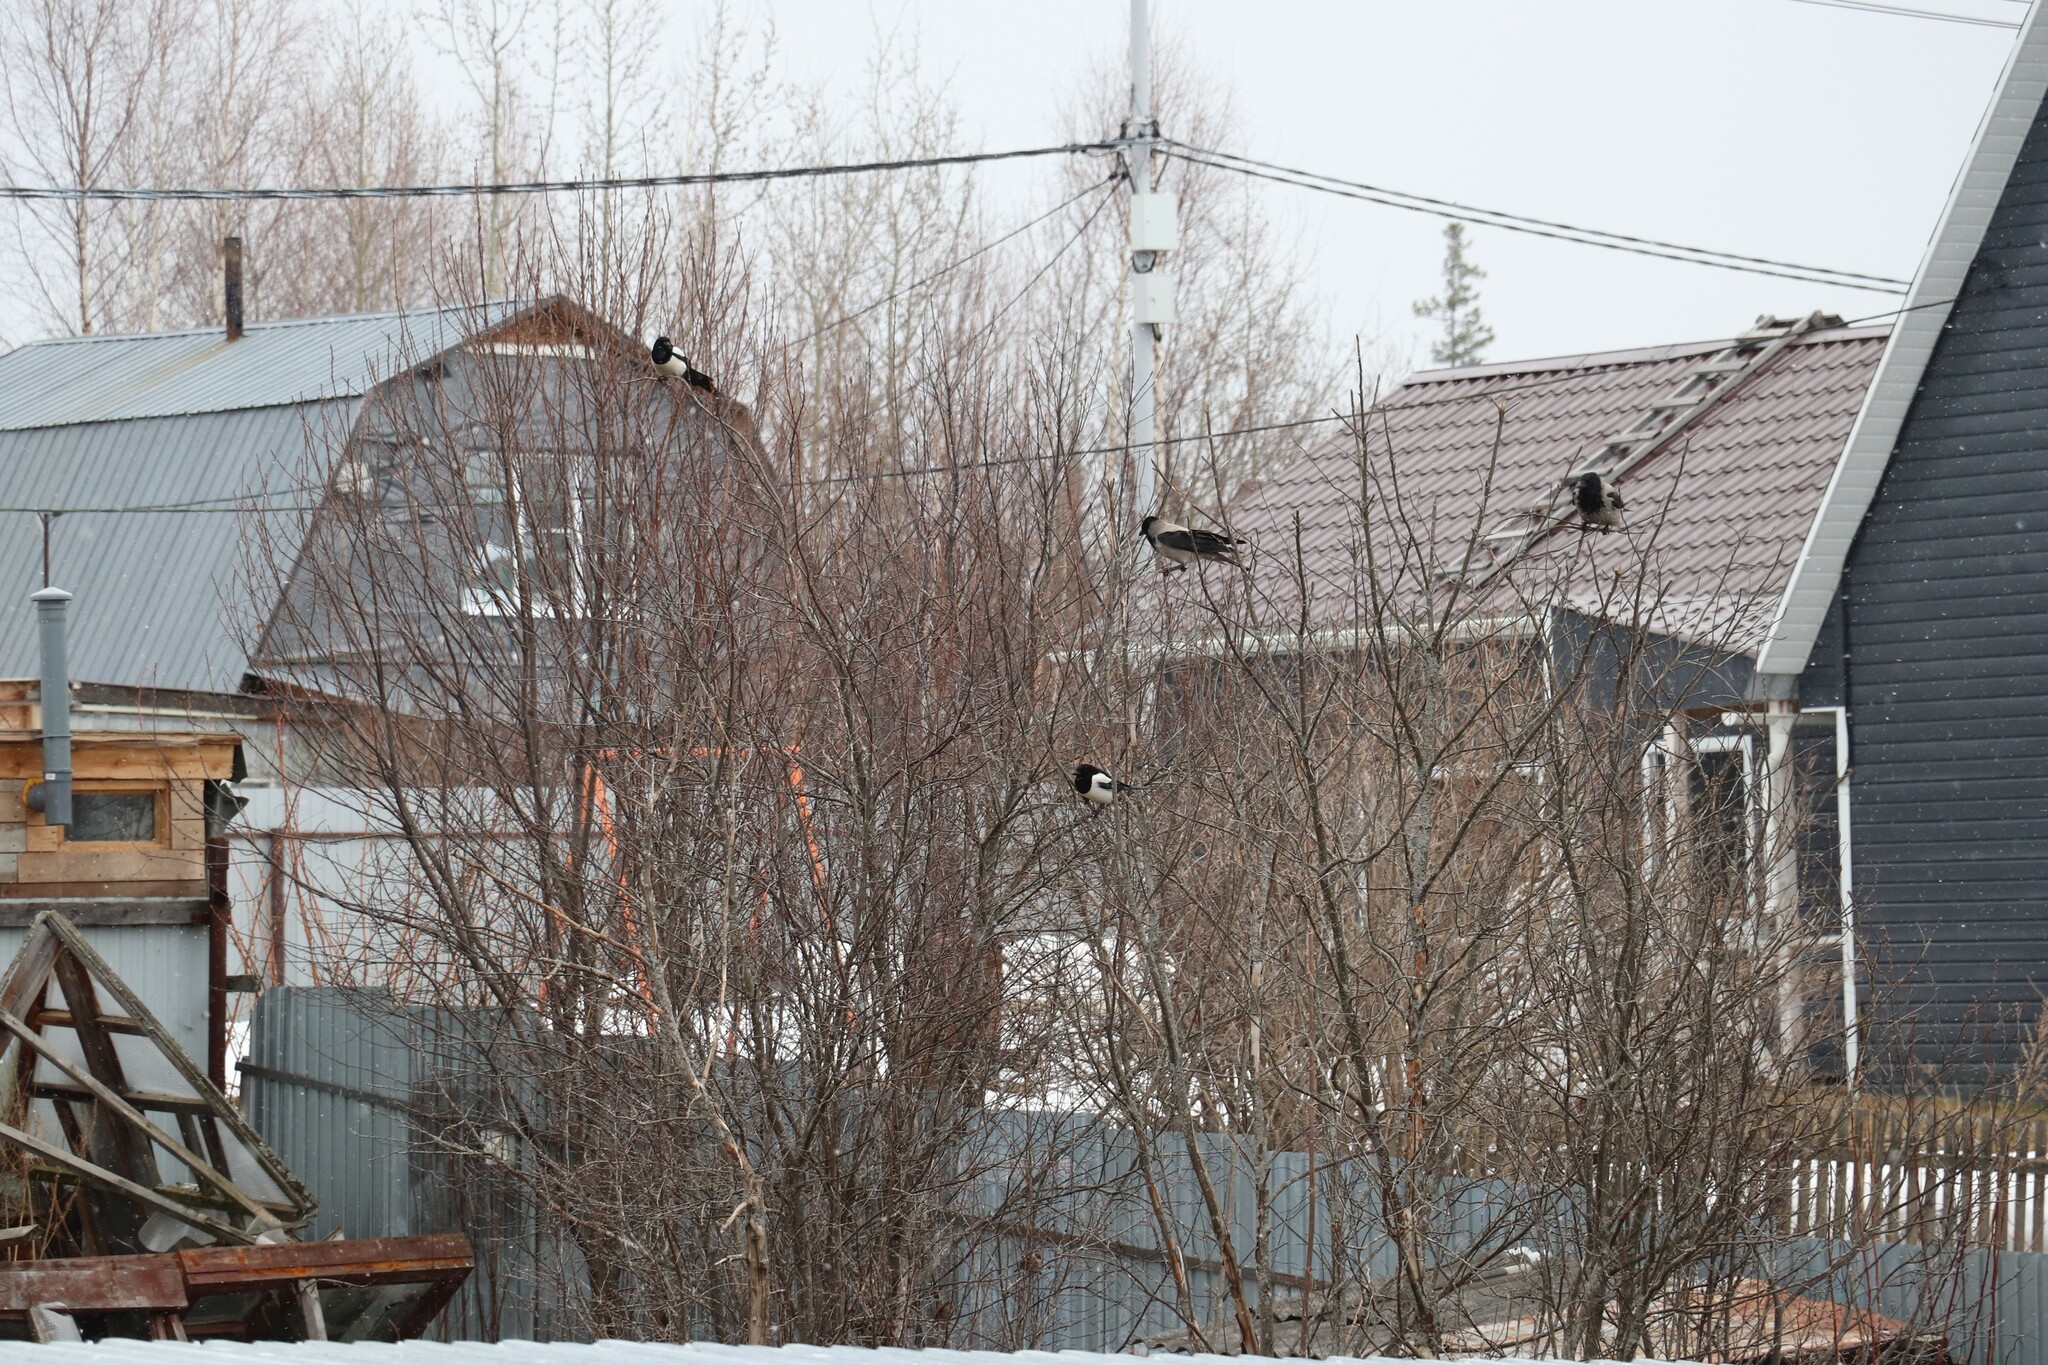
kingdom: Animalia
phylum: Chordata
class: Aves
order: Passeriformes
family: Corvidae
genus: Corvus
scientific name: Corvus cornix
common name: Hooded crow
